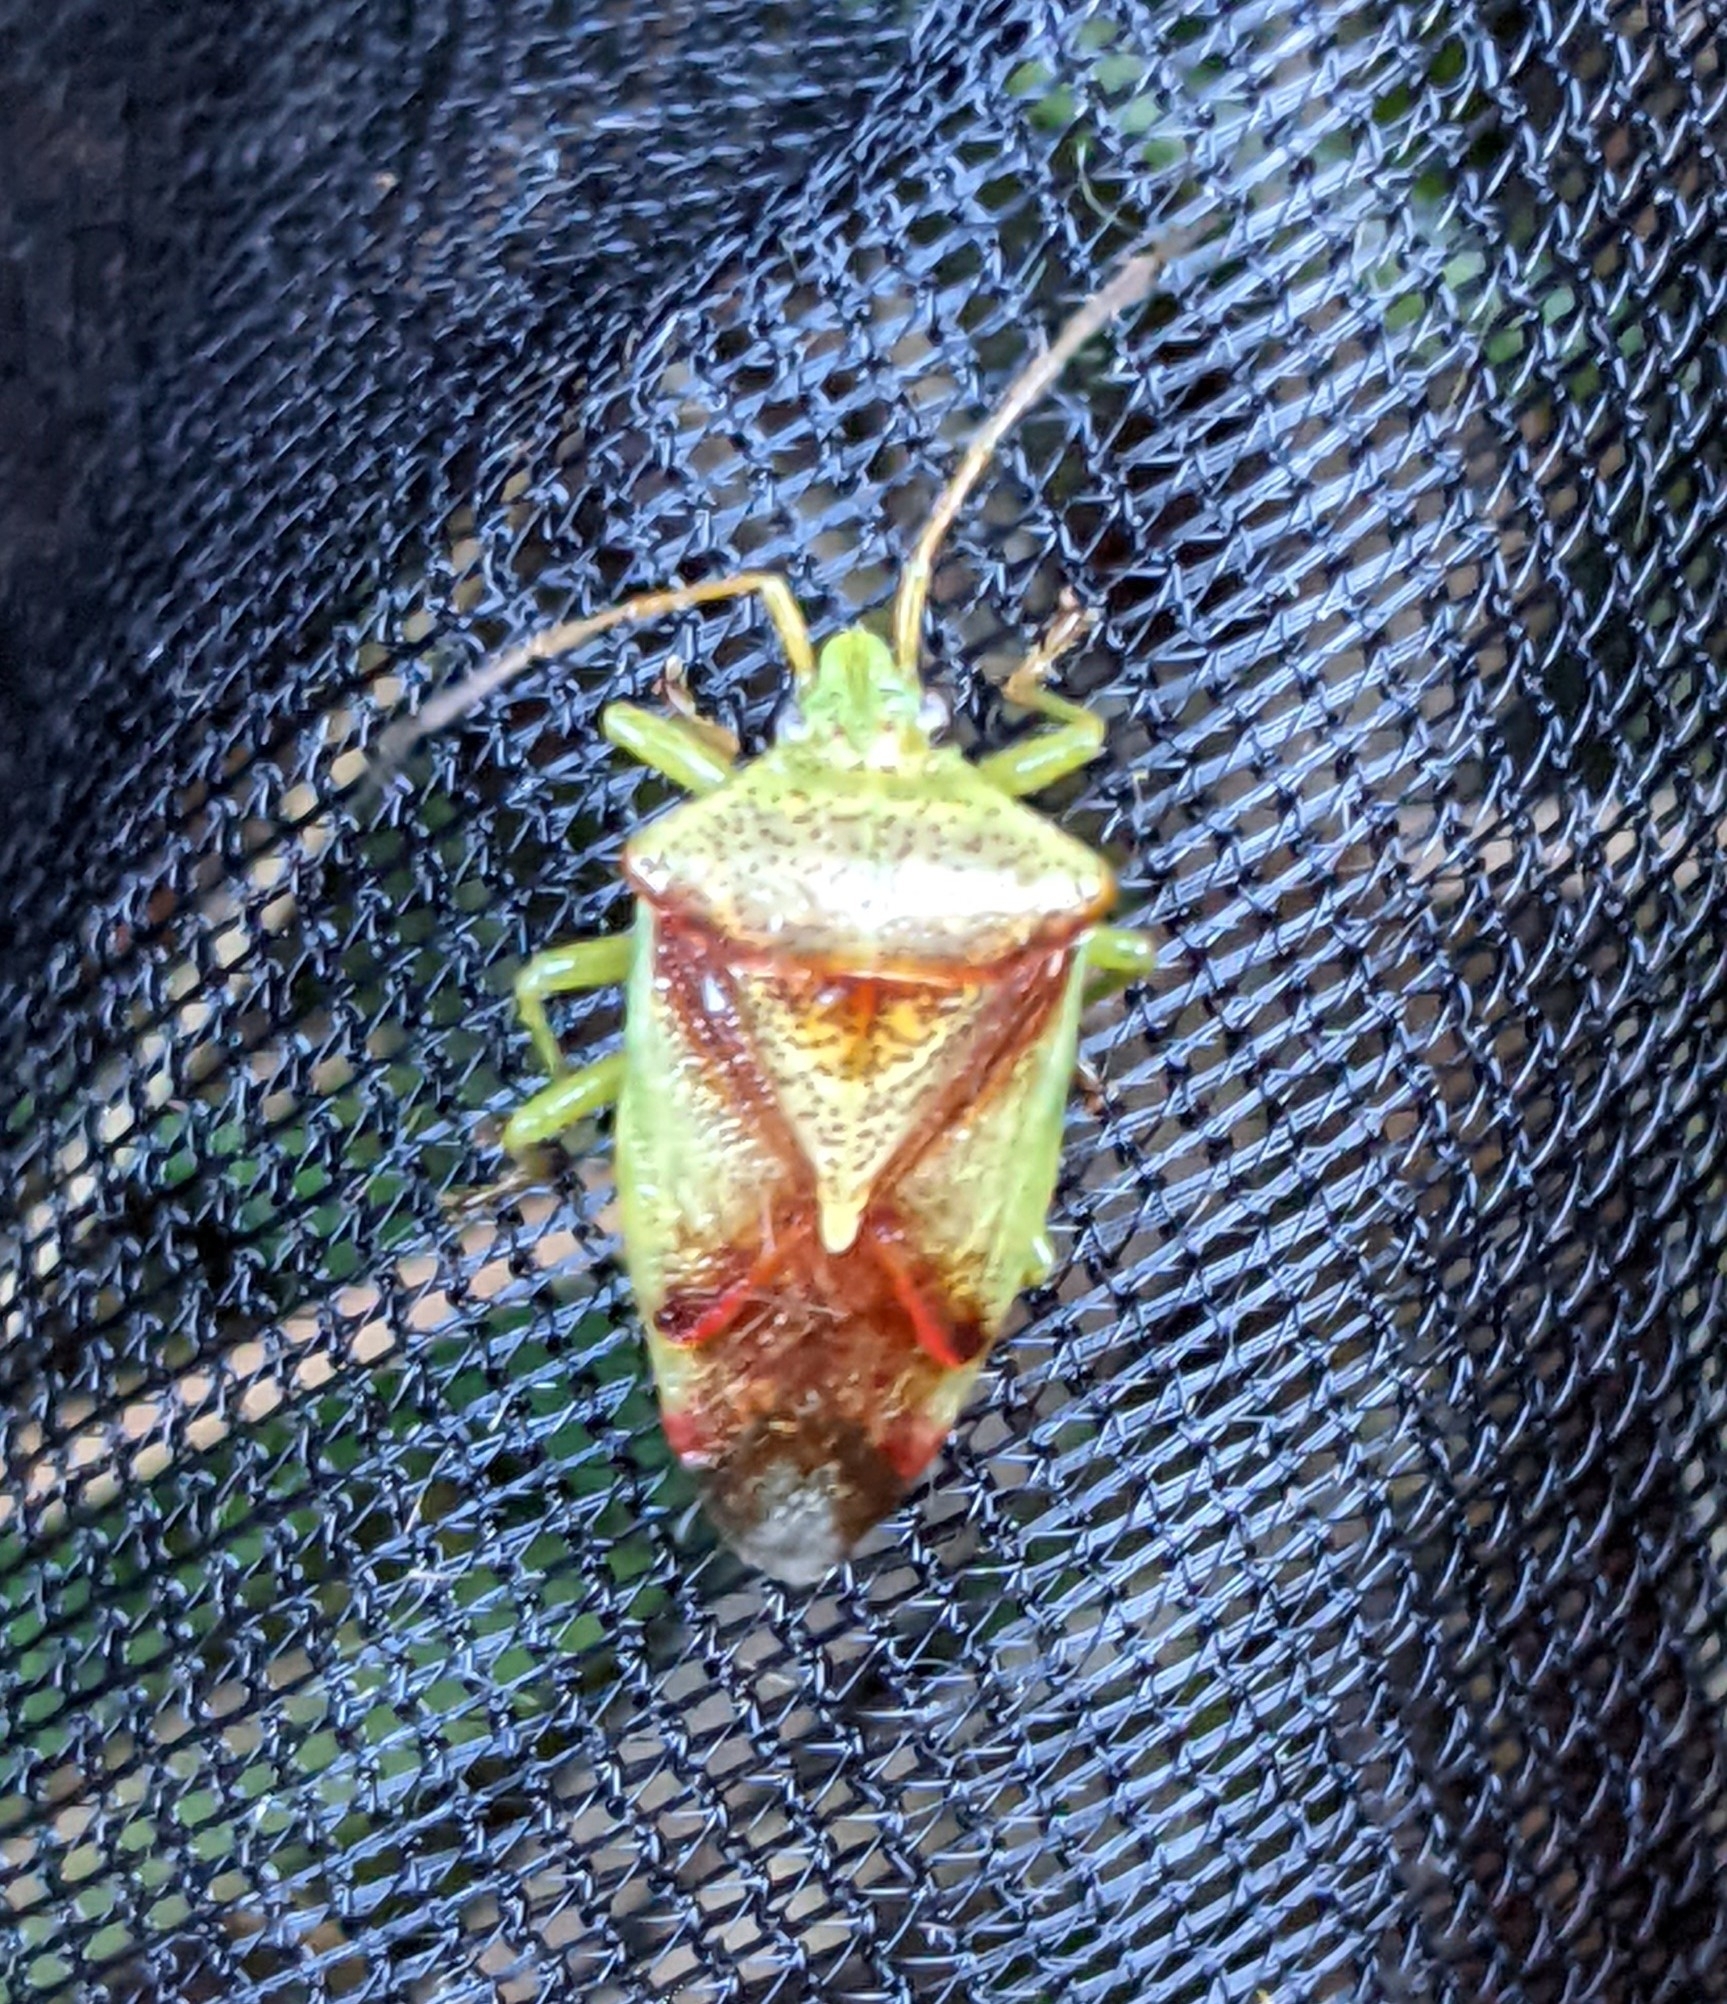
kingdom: Animalia
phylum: Arthropoda
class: Insecta
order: Hemiptera
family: Acanthosomatidae
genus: Elasmostethus
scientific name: Elasmostethus cruciatus
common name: Red-cross shield bug
